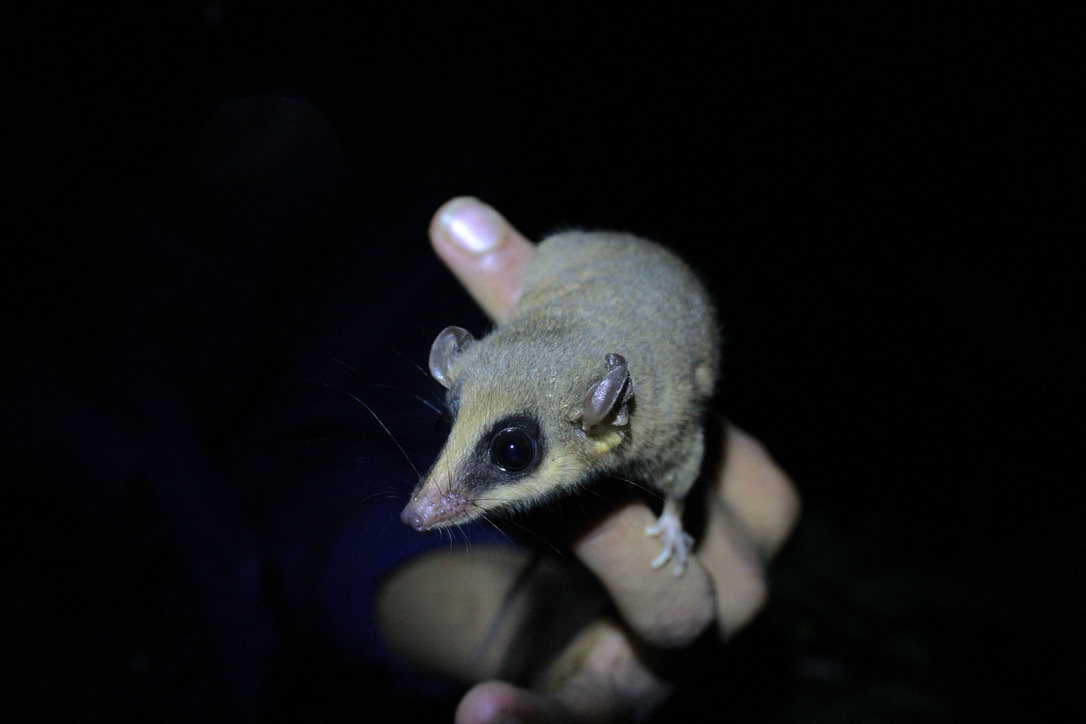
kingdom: Animalia
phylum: Chordata
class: Mammalia
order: Didelphimorphia
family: Didelphidae
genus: Marmosa
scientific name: Marmosa robinsoni
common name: Robinson's mouse opossum
